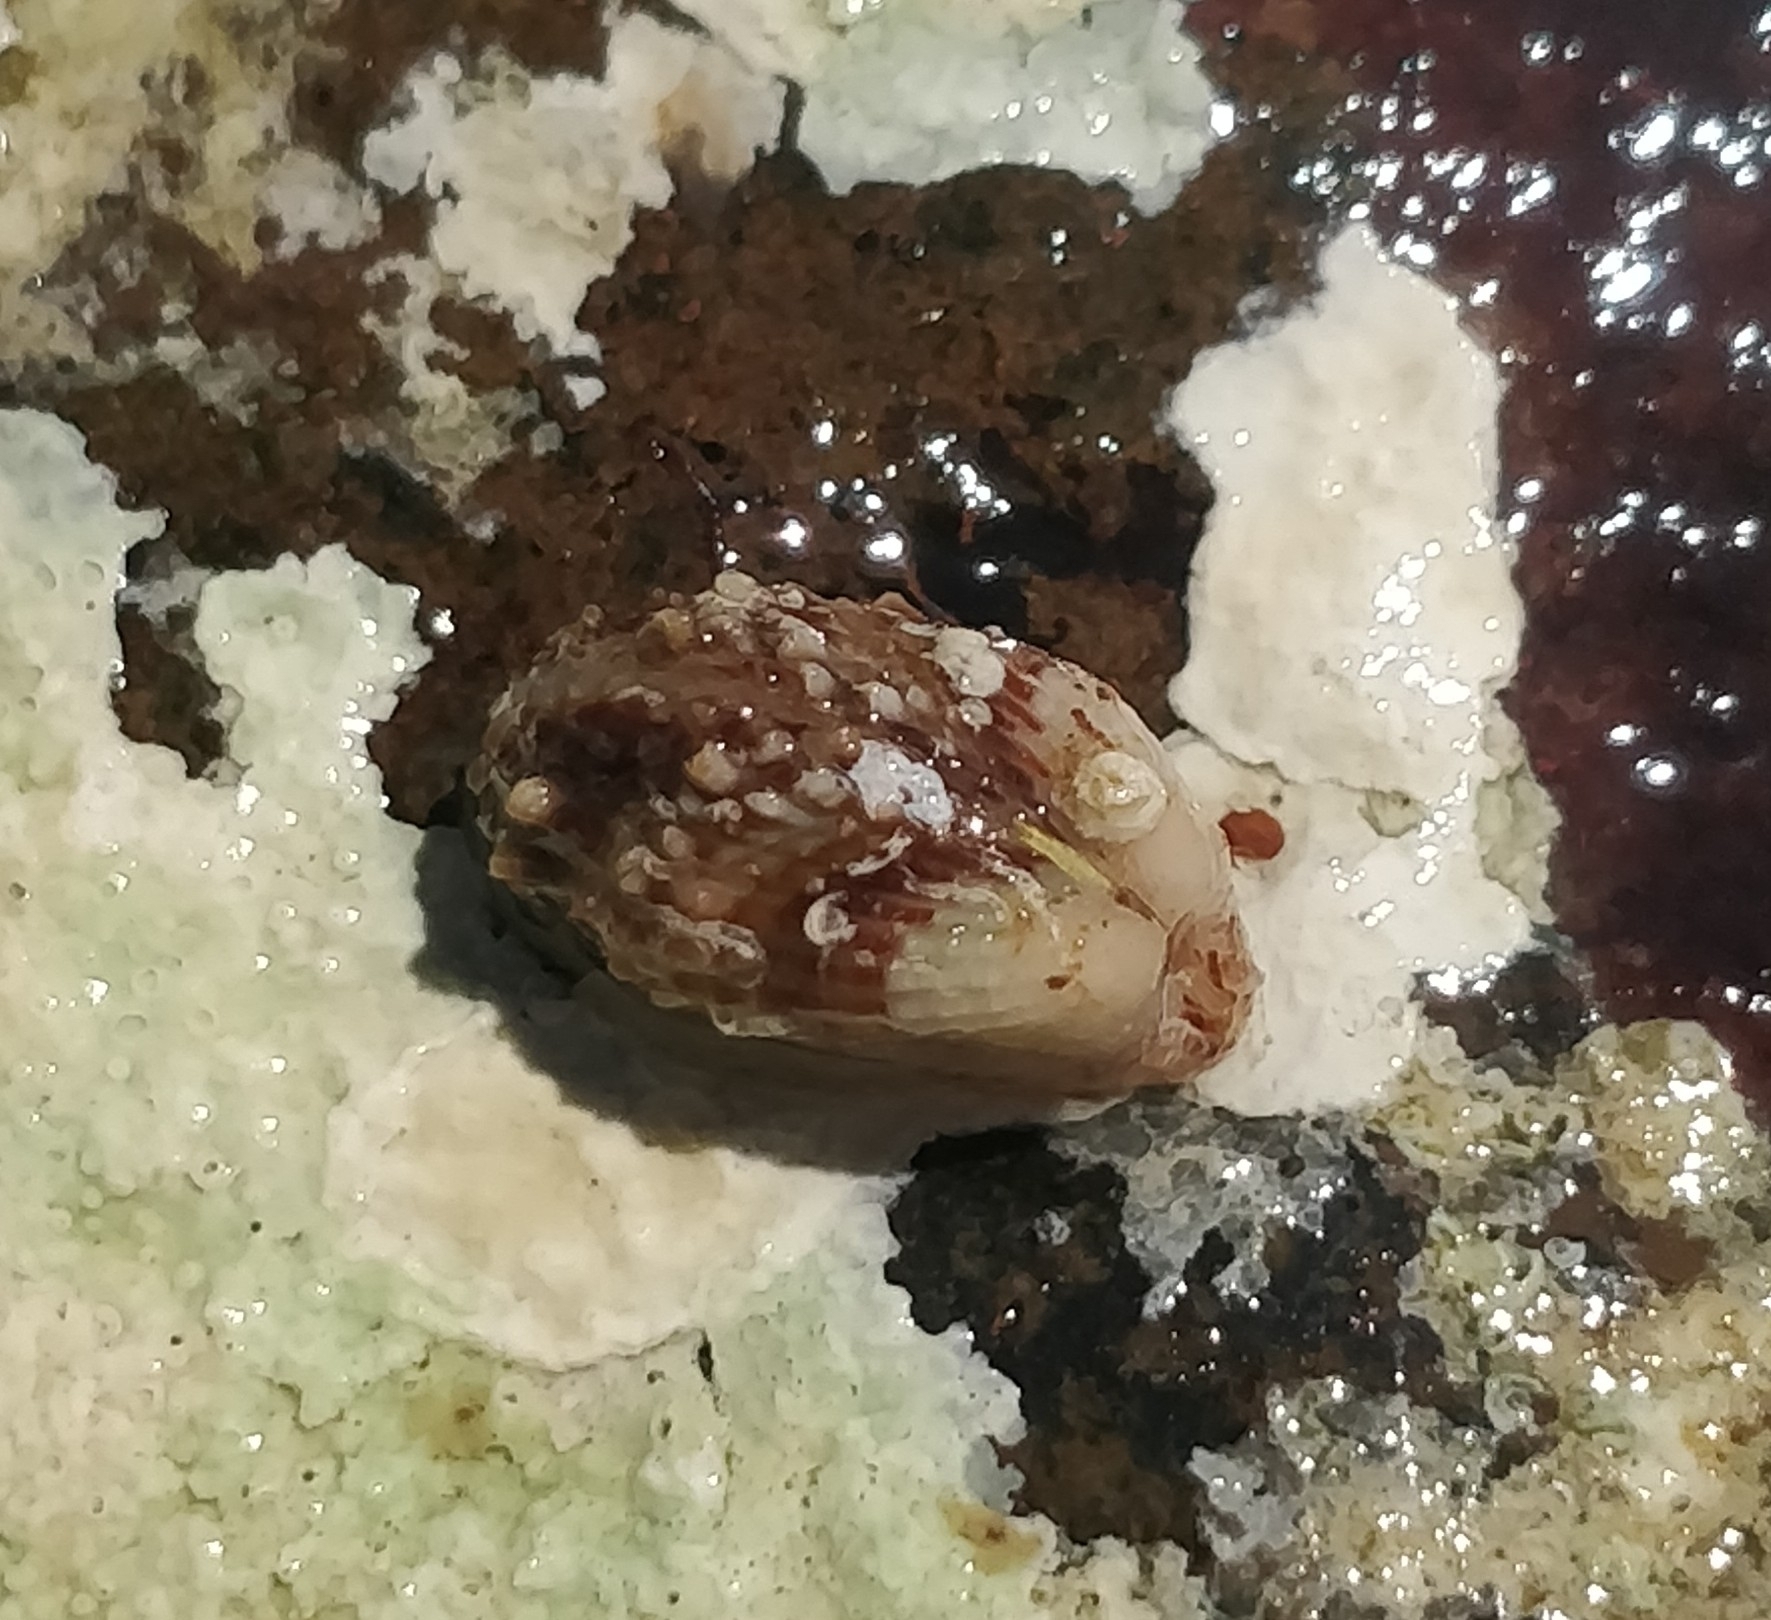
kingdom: Animalia
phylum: Mollusca
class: Bivalvia
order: Carditida
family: Carditidae
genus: Cardita
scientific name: Cardita calyculata
